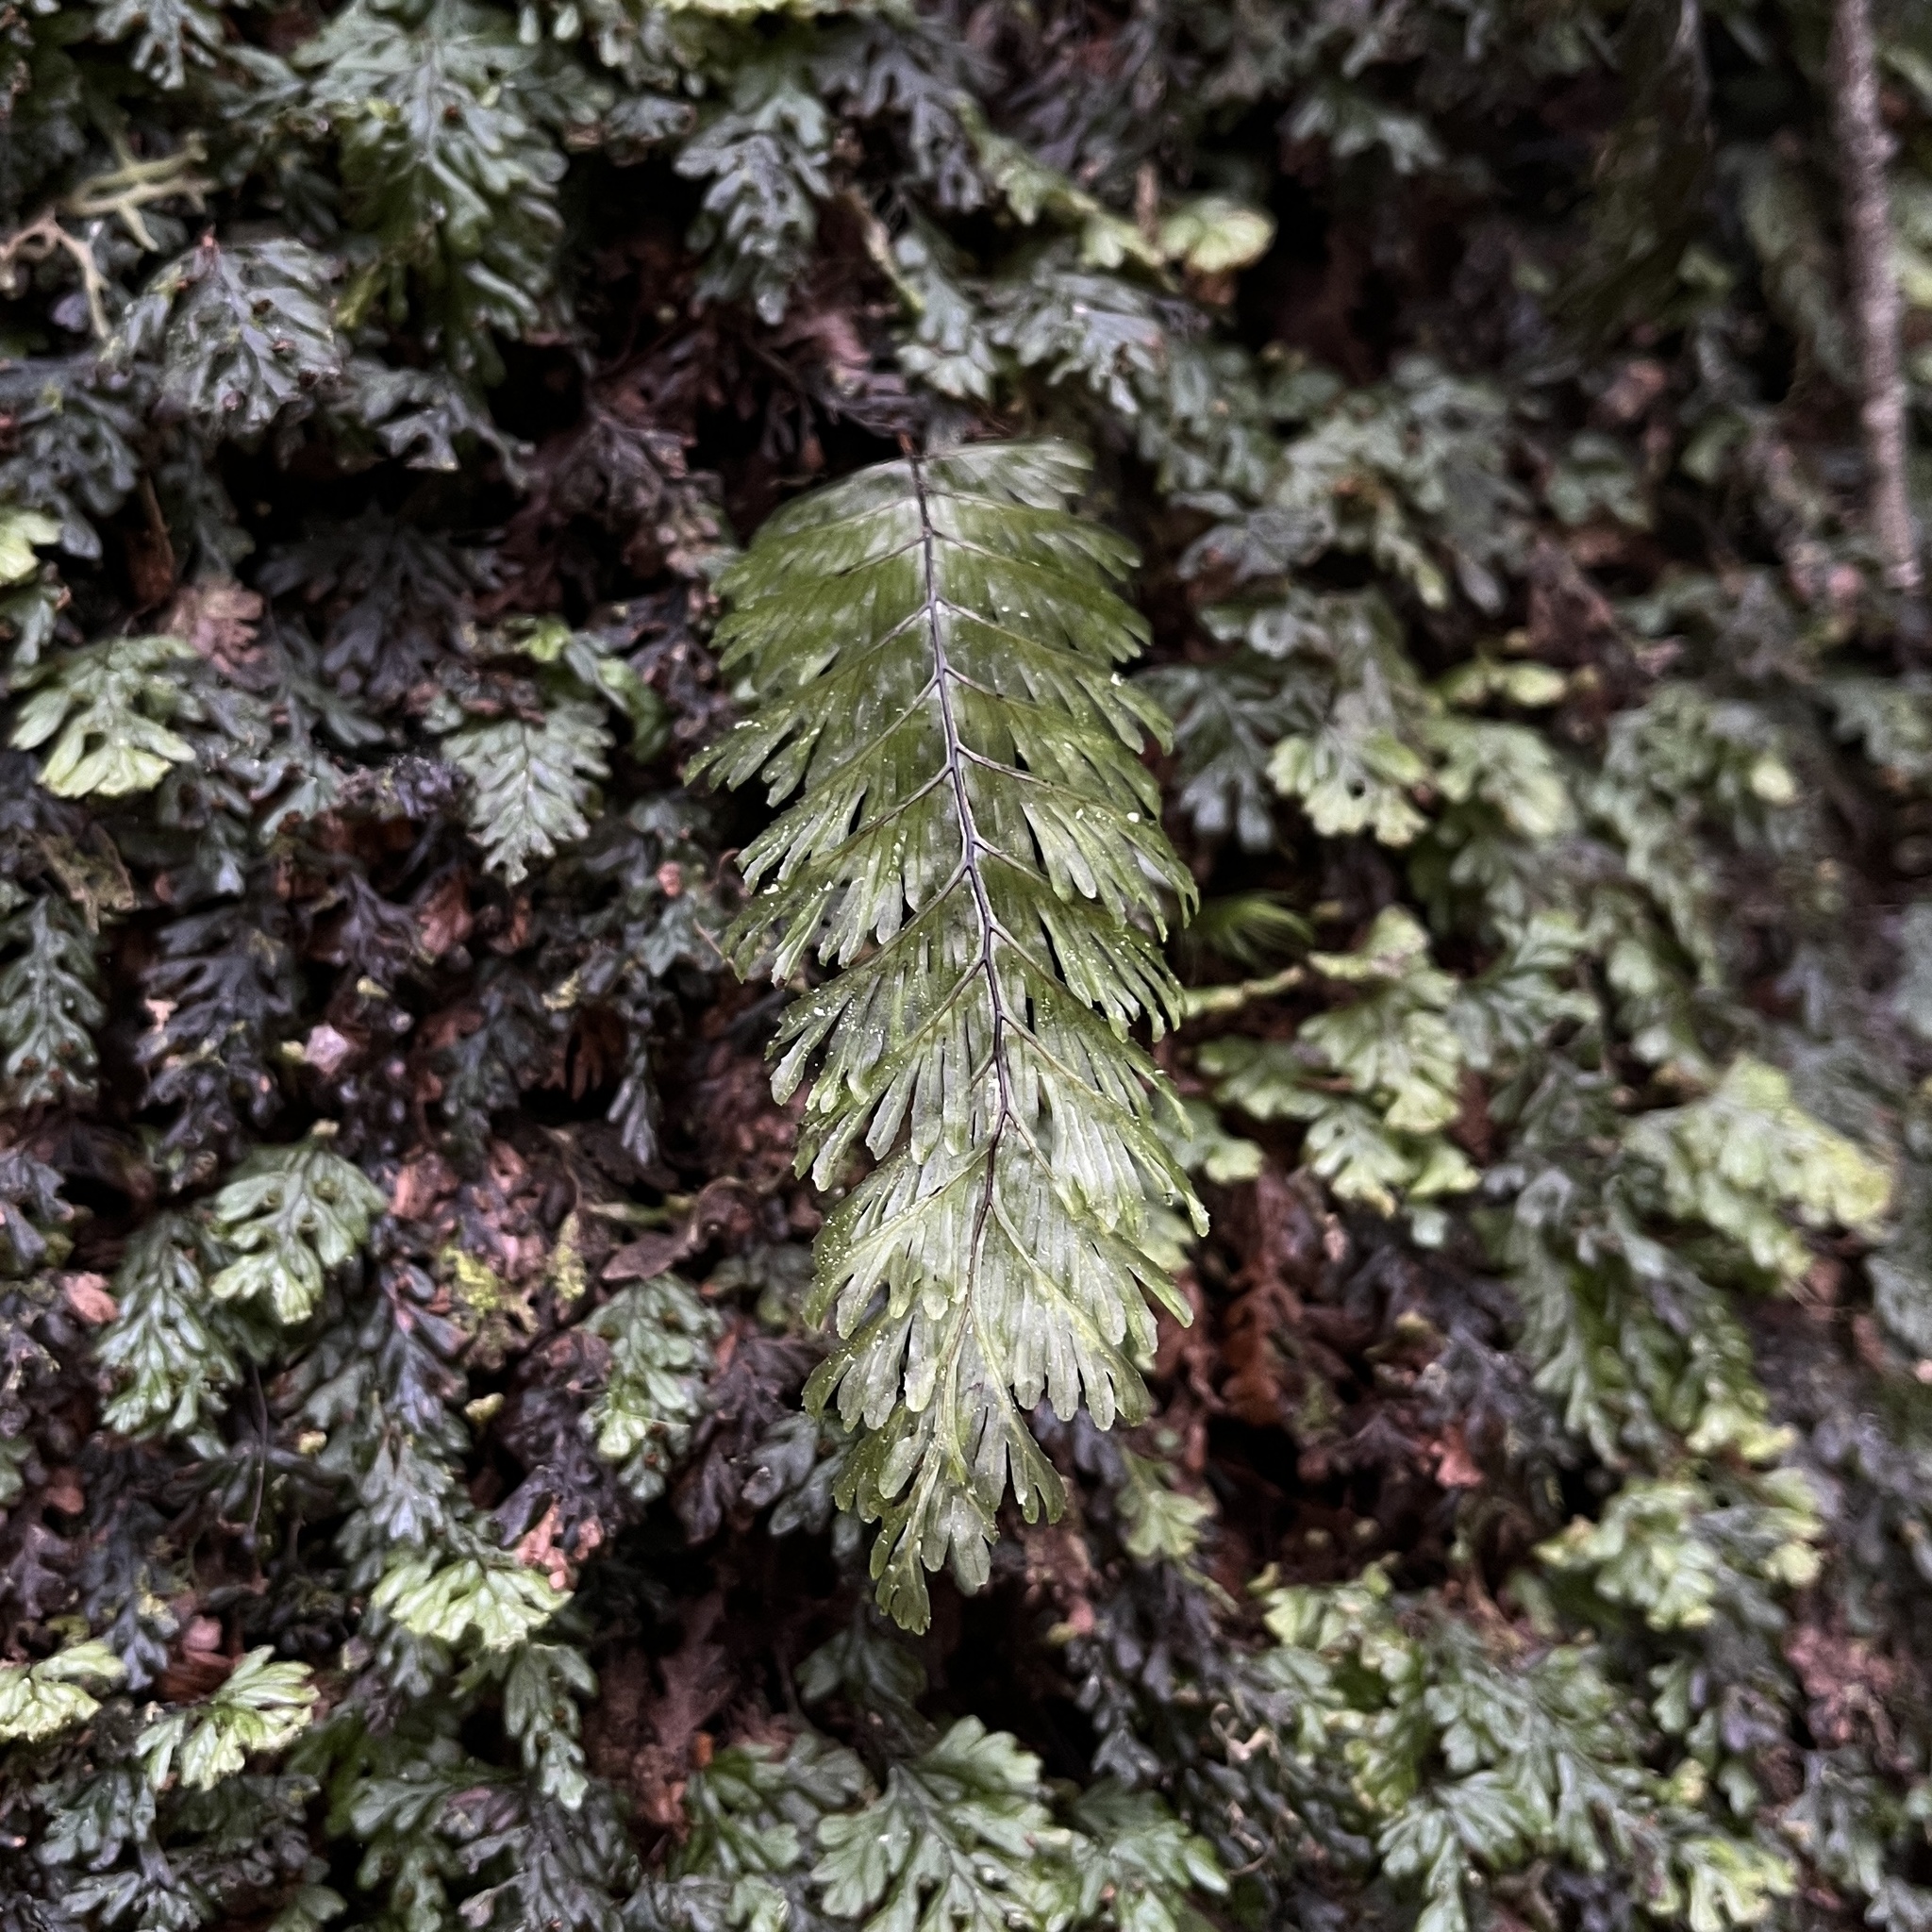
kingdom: Plantae
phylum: Tracheophyta
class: Polypodiopsida
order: Hymenophyllales
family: Hymenophyllaceae
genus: Hymenophyllum
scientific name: Hymenophyllum pectinatum
